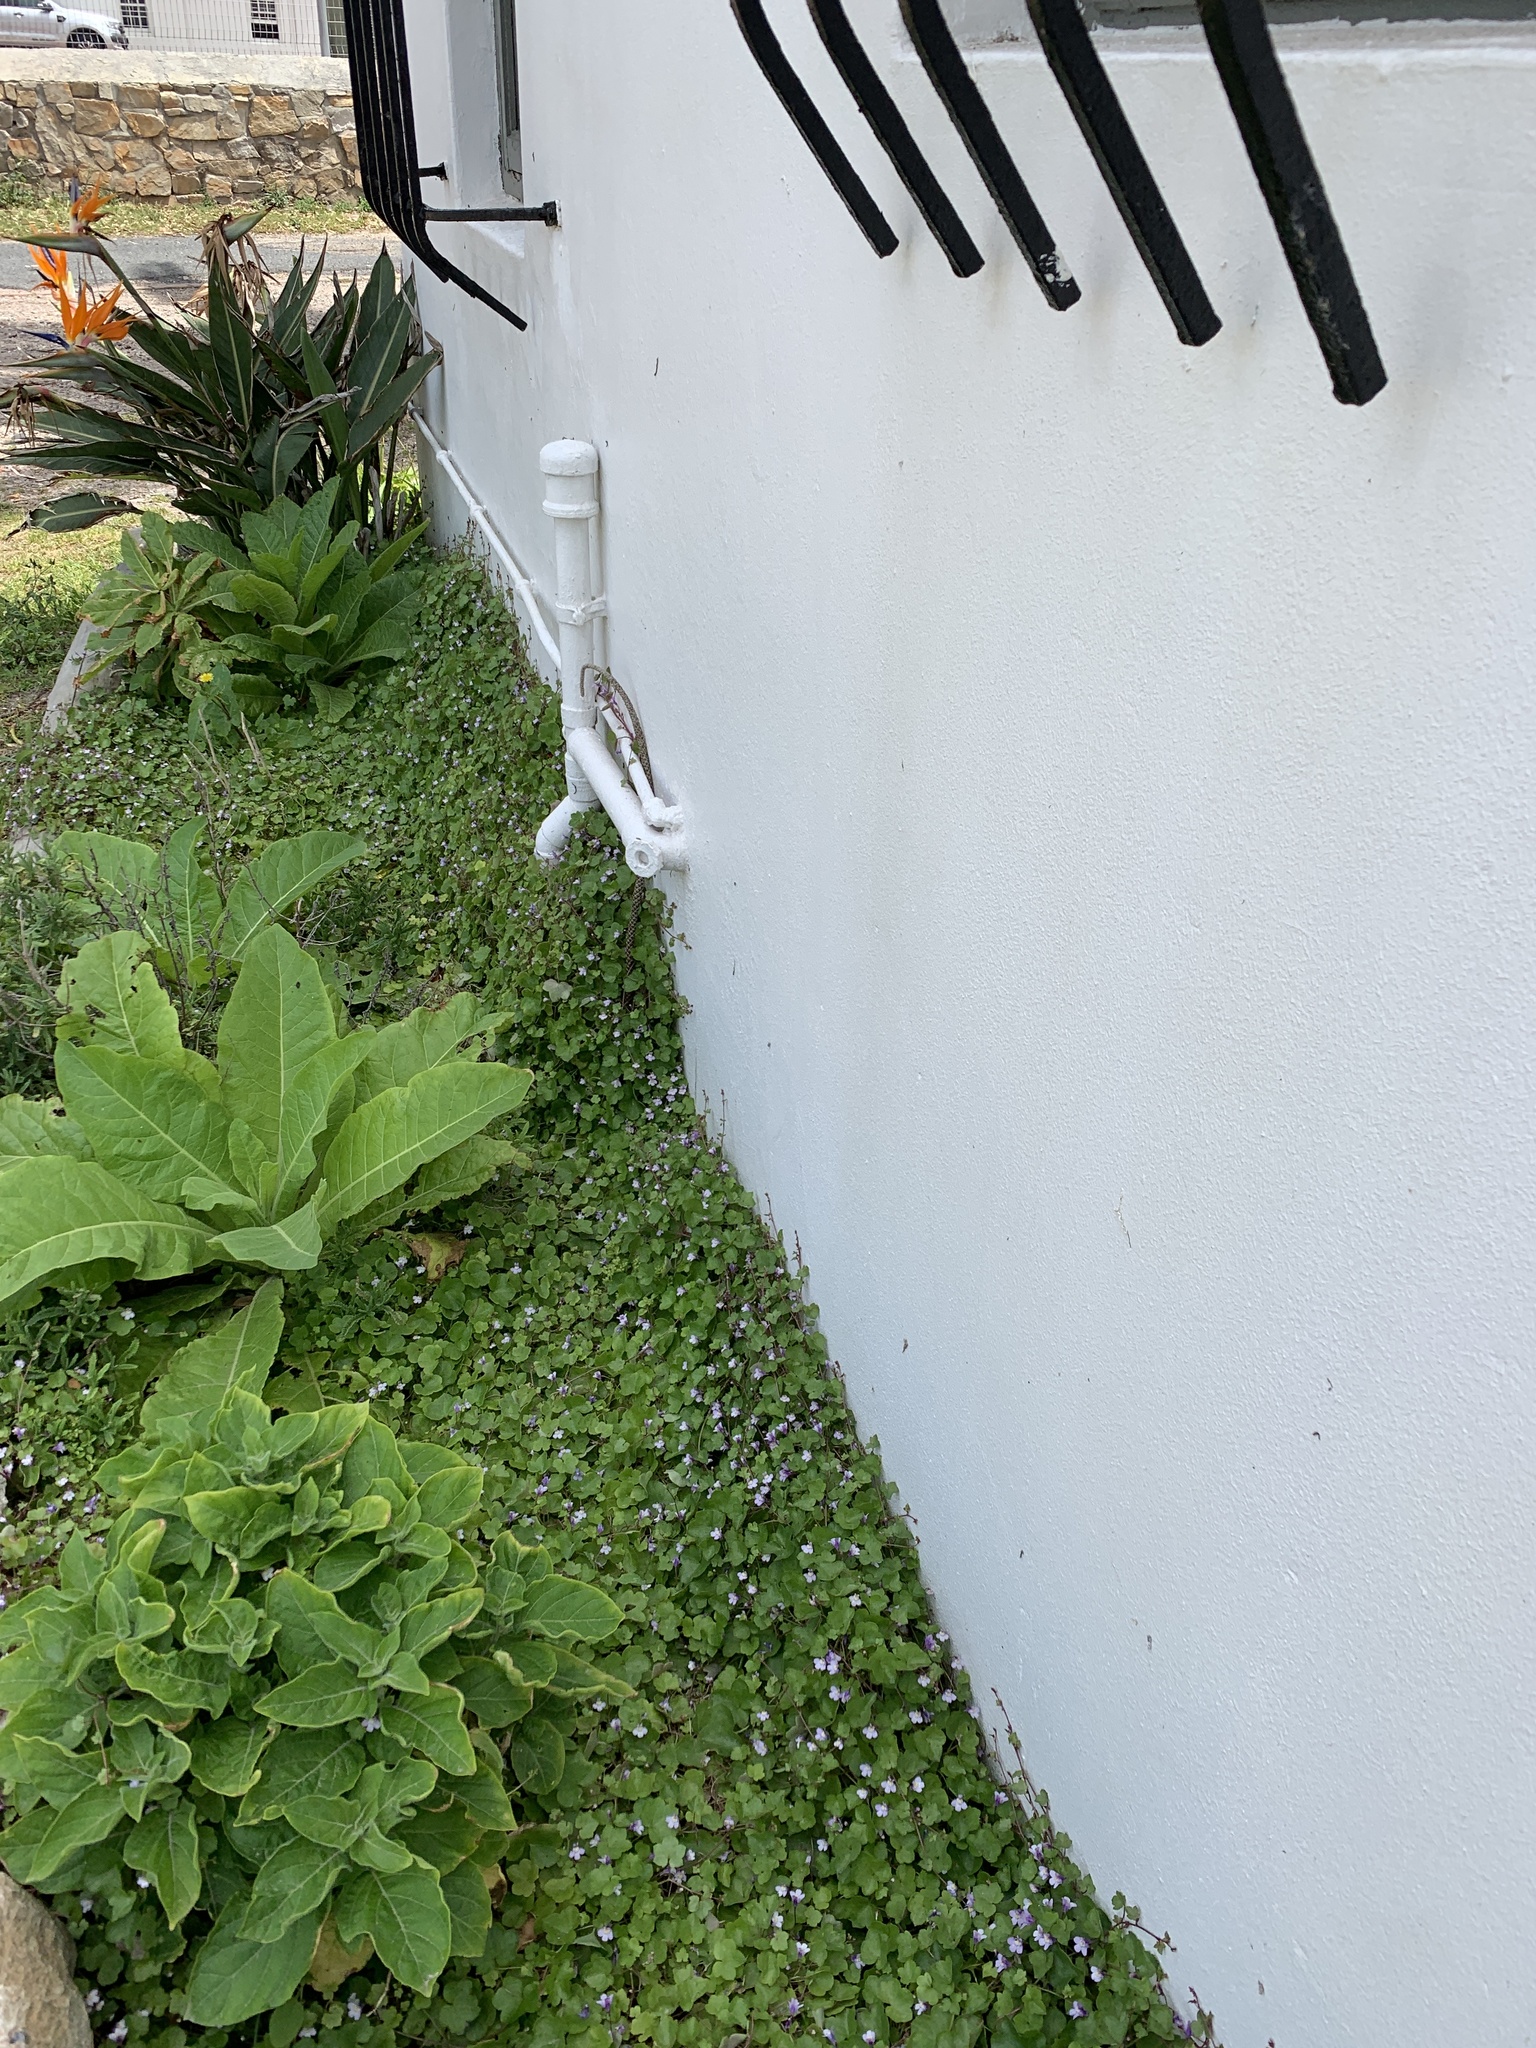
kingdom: Plantae
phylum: Tracheophyta
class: Magnoliopsida
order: Lamiales
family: Plantaginaceae
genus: Cymbalaria
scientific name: Cymbalaria muralis
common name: Ivy-leaved toadflax
